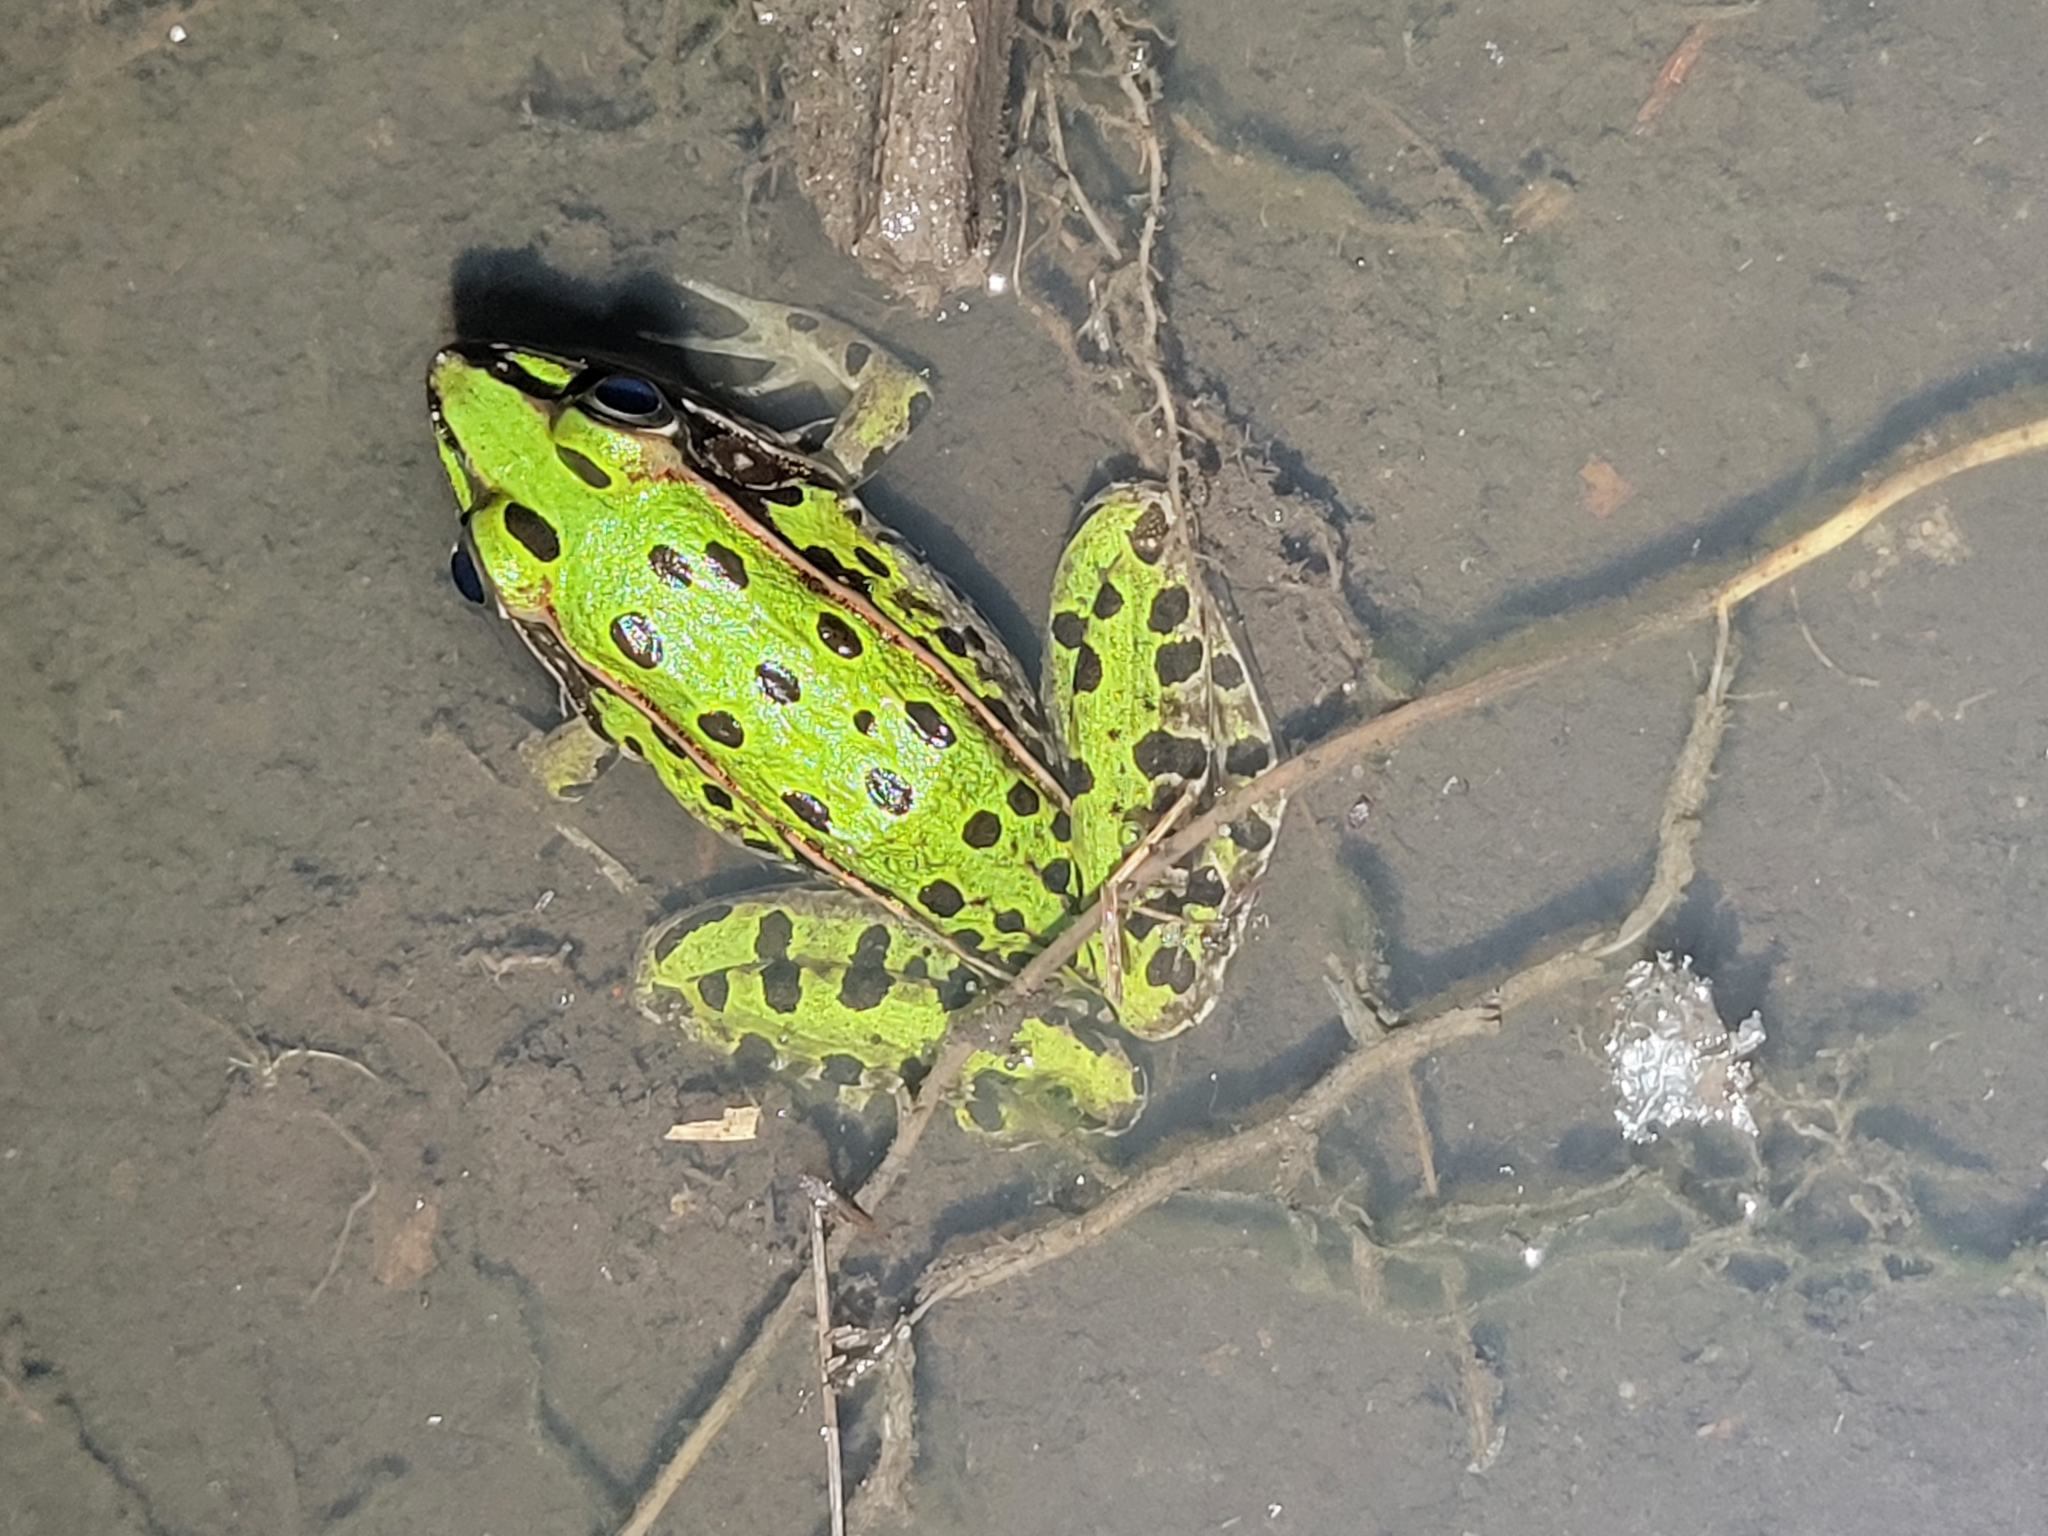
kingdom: Animalia
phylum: Chordata
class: Amphibia
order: Anura
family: Ranidae
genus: Lithobates
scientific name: Lithobates sphenocephalus
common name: Southern leopard frog
